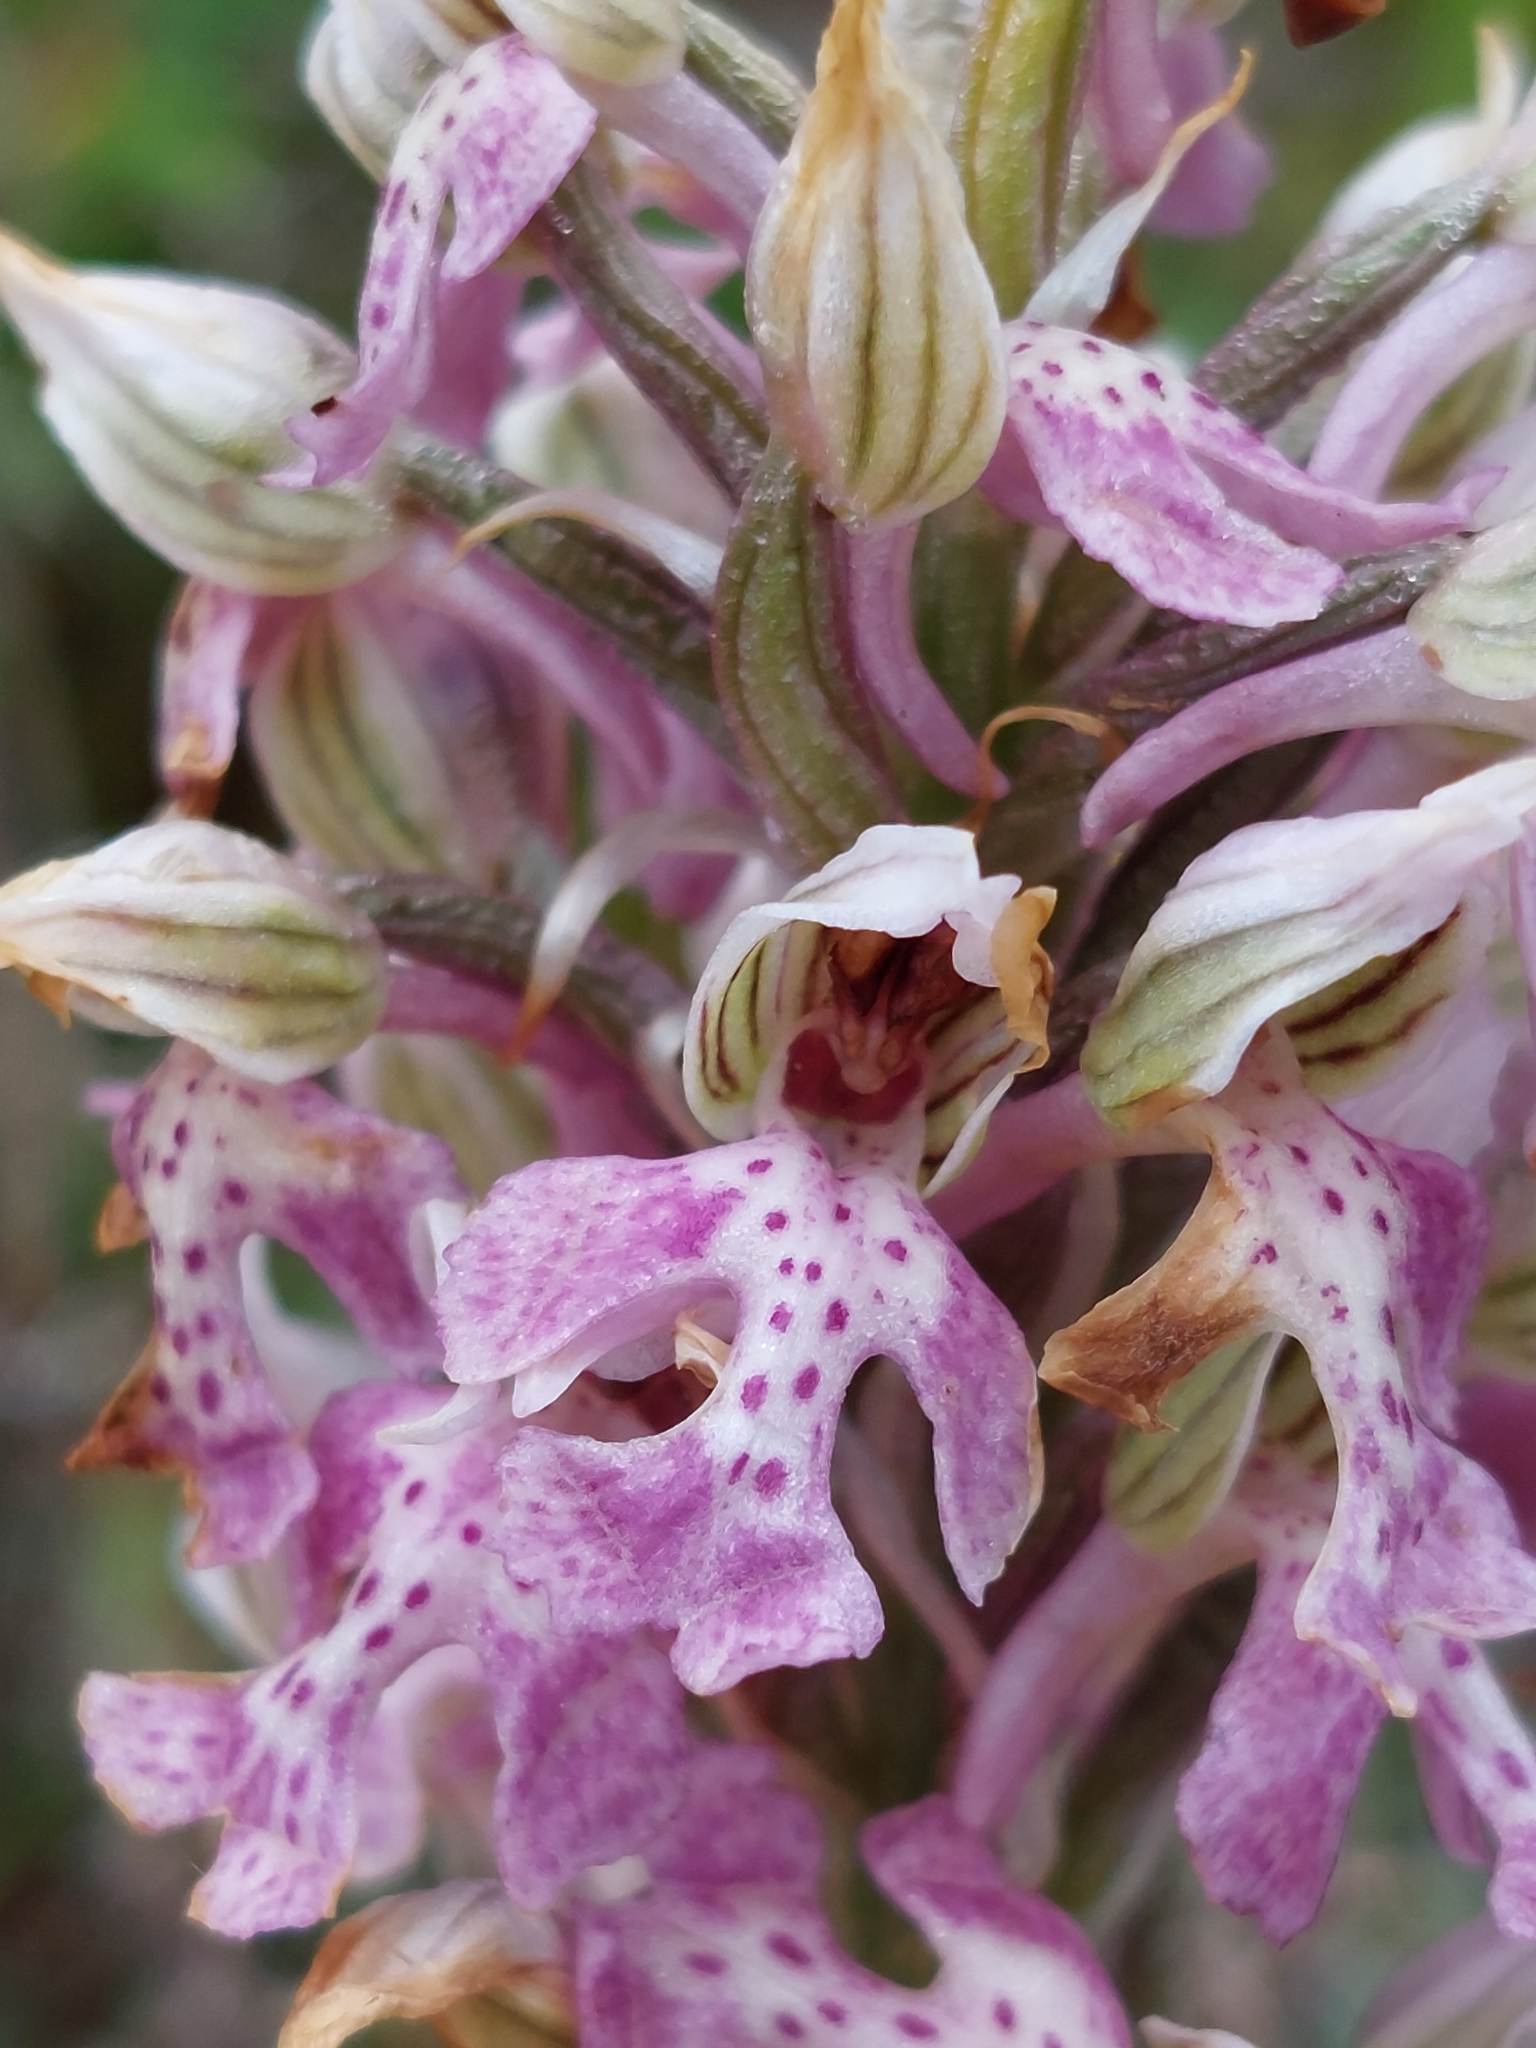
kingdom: Plantae
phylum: Tracheophyta
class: Liliopsida
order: Asparagales
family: Orchidaceae
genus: Neotinea
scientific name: Neotinea lactea
